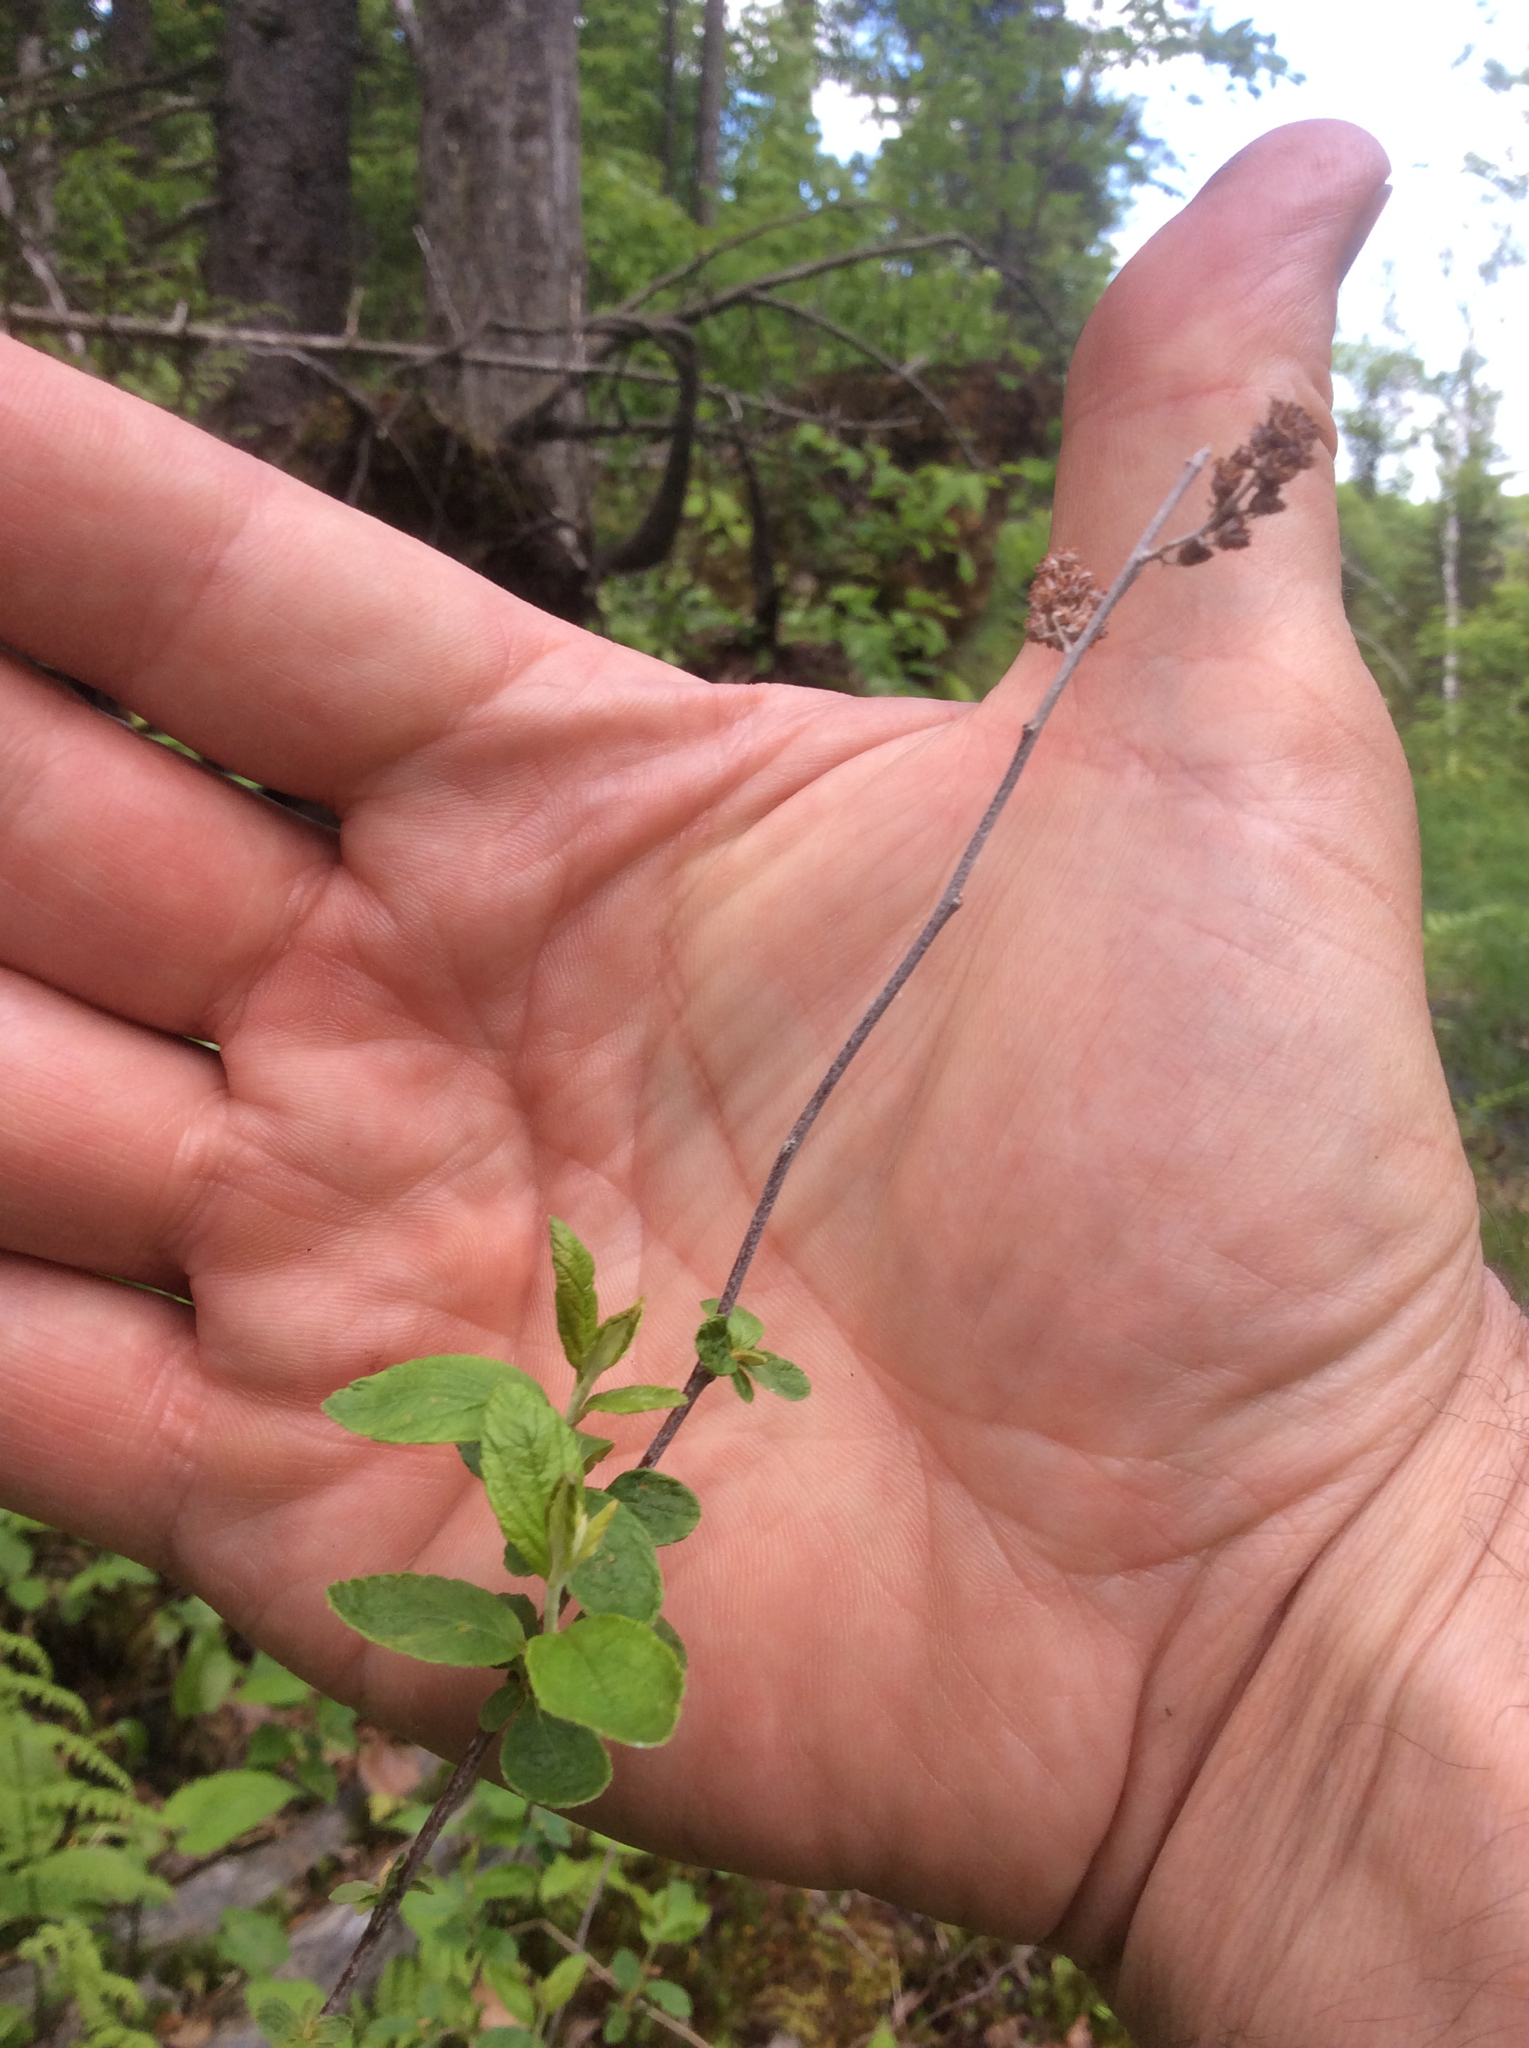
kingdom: Plantae
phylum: Tracheophyta
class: Magnoliopsida
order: Rosales
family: Rosaceae
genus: Spiraea
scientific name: Spiraea alba
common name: Pale bridewort
